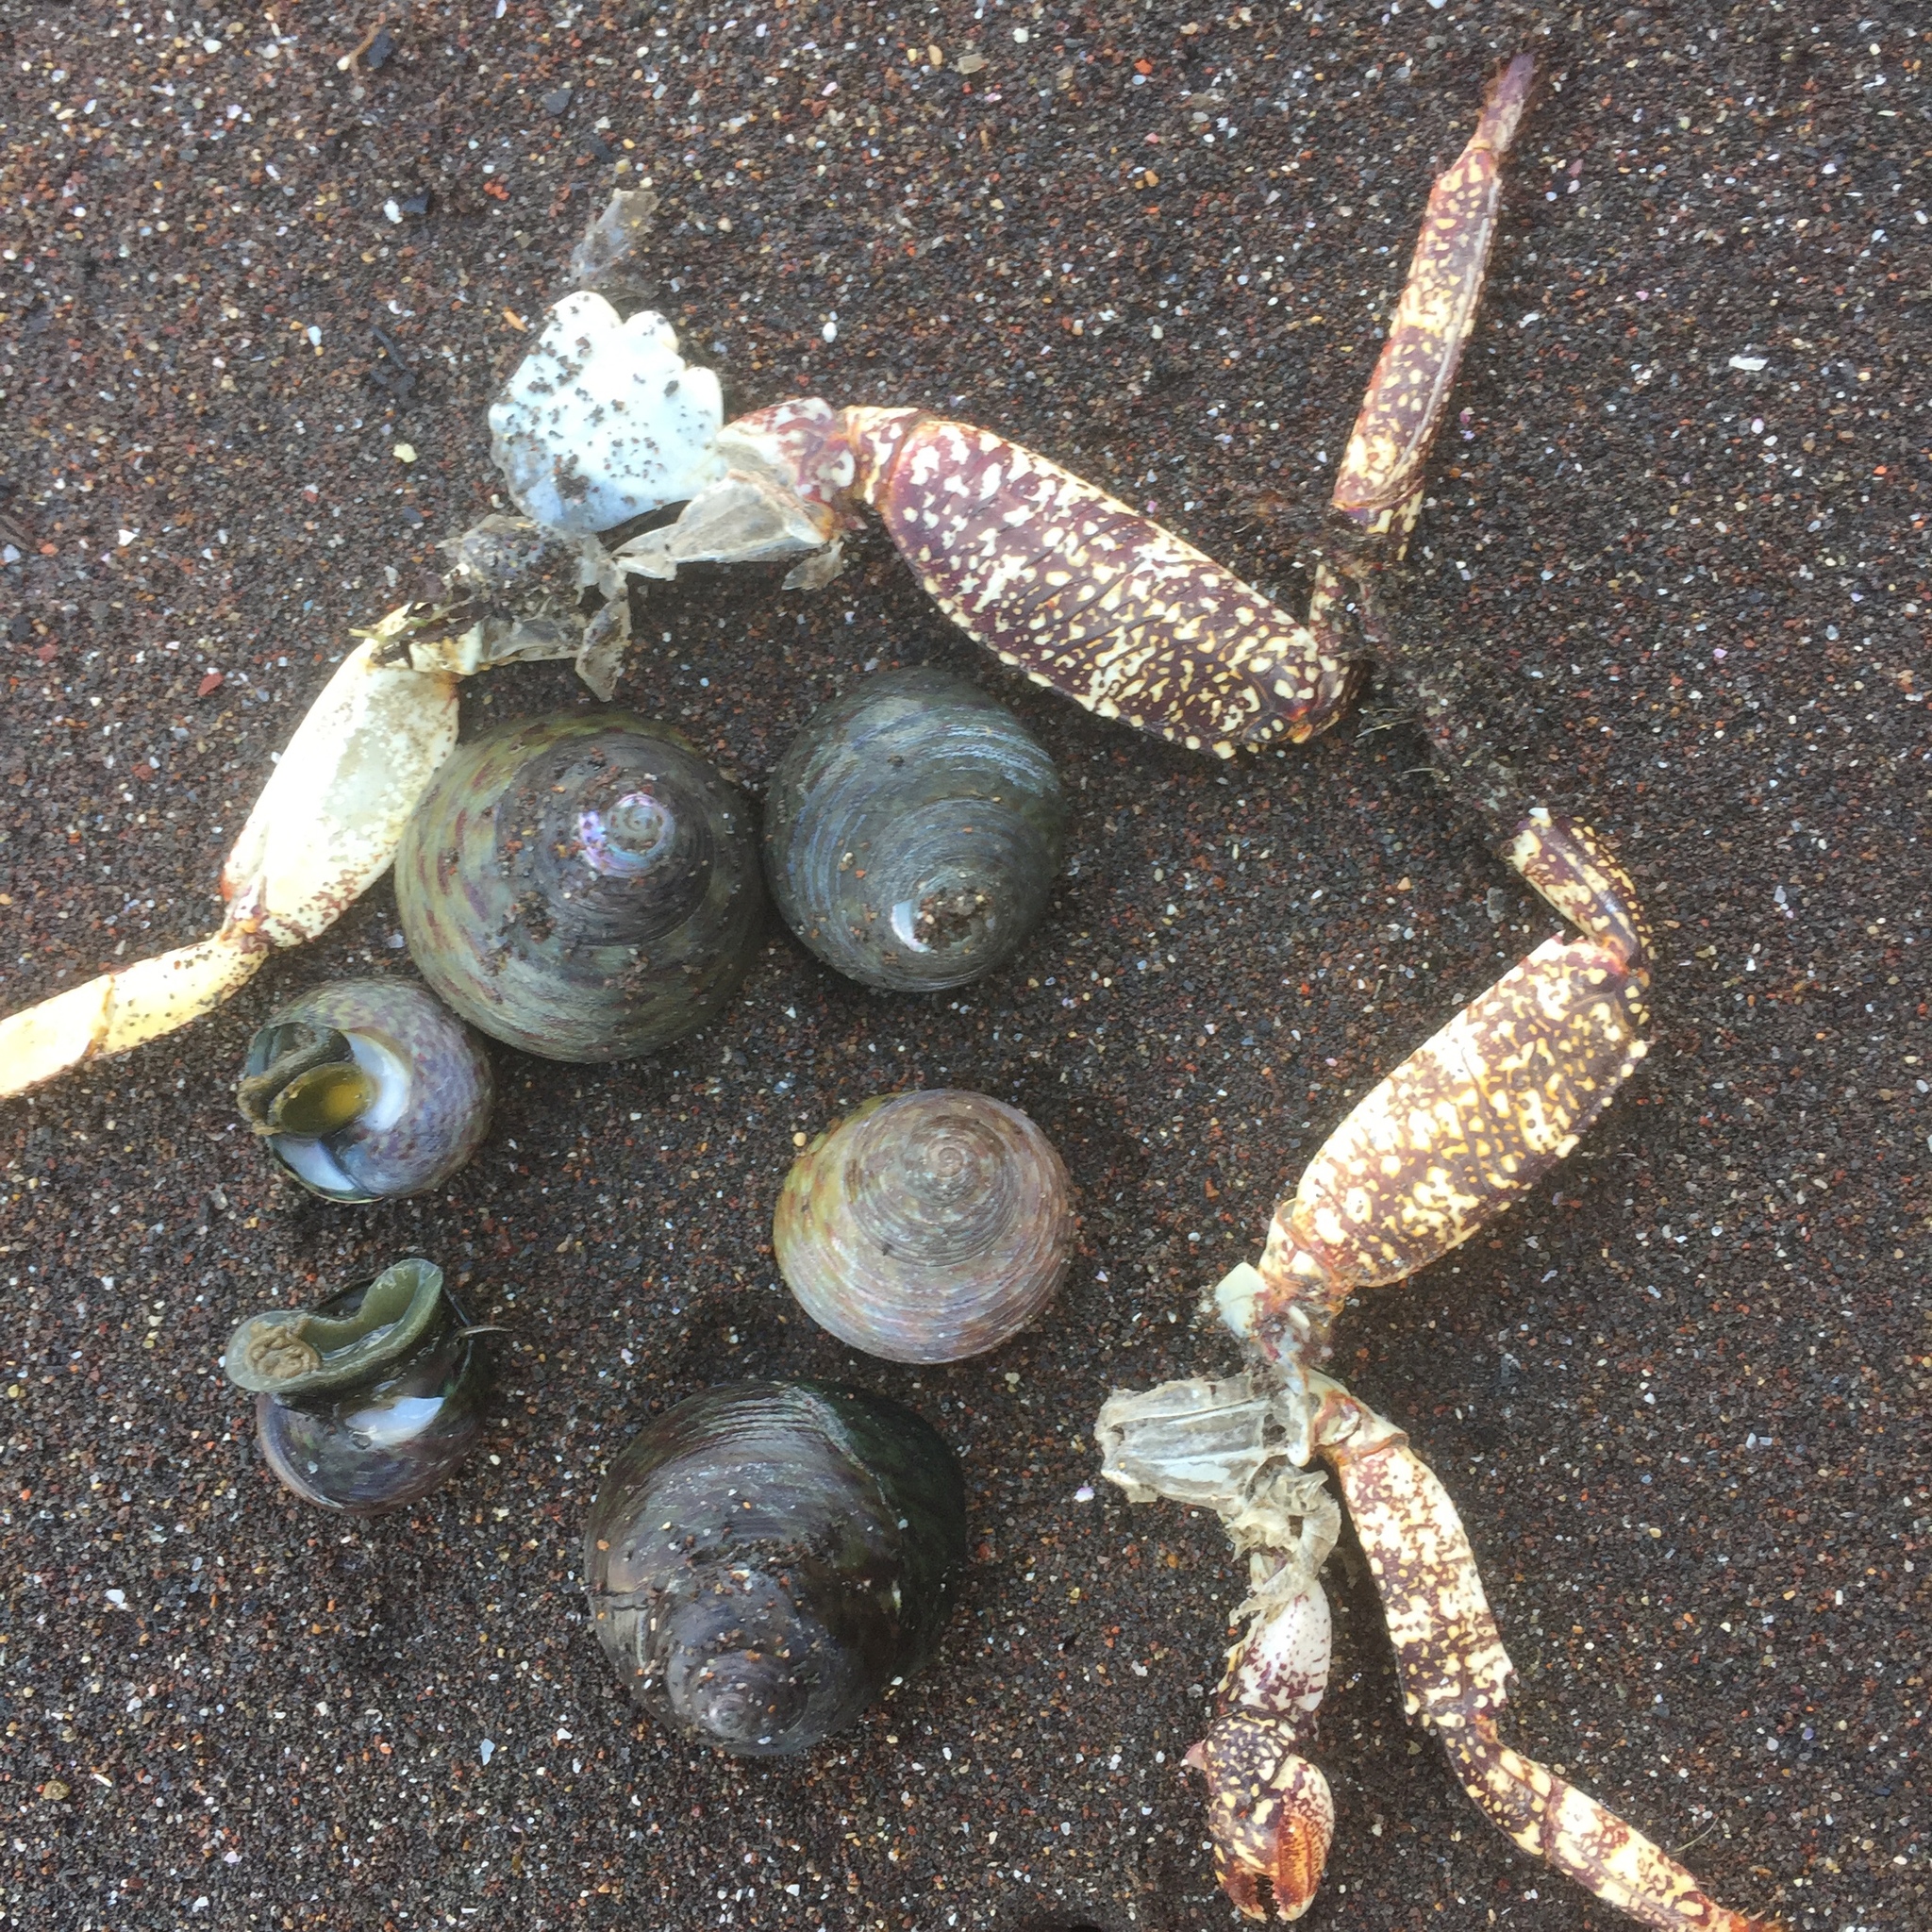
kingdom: Animalia
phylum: Arthropoda
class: Malacostraca
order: Decapoda
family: Grapsidae
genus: Pachygrapsus
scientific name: Pachygrapsus marmoratus
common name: Marbled rock crab
